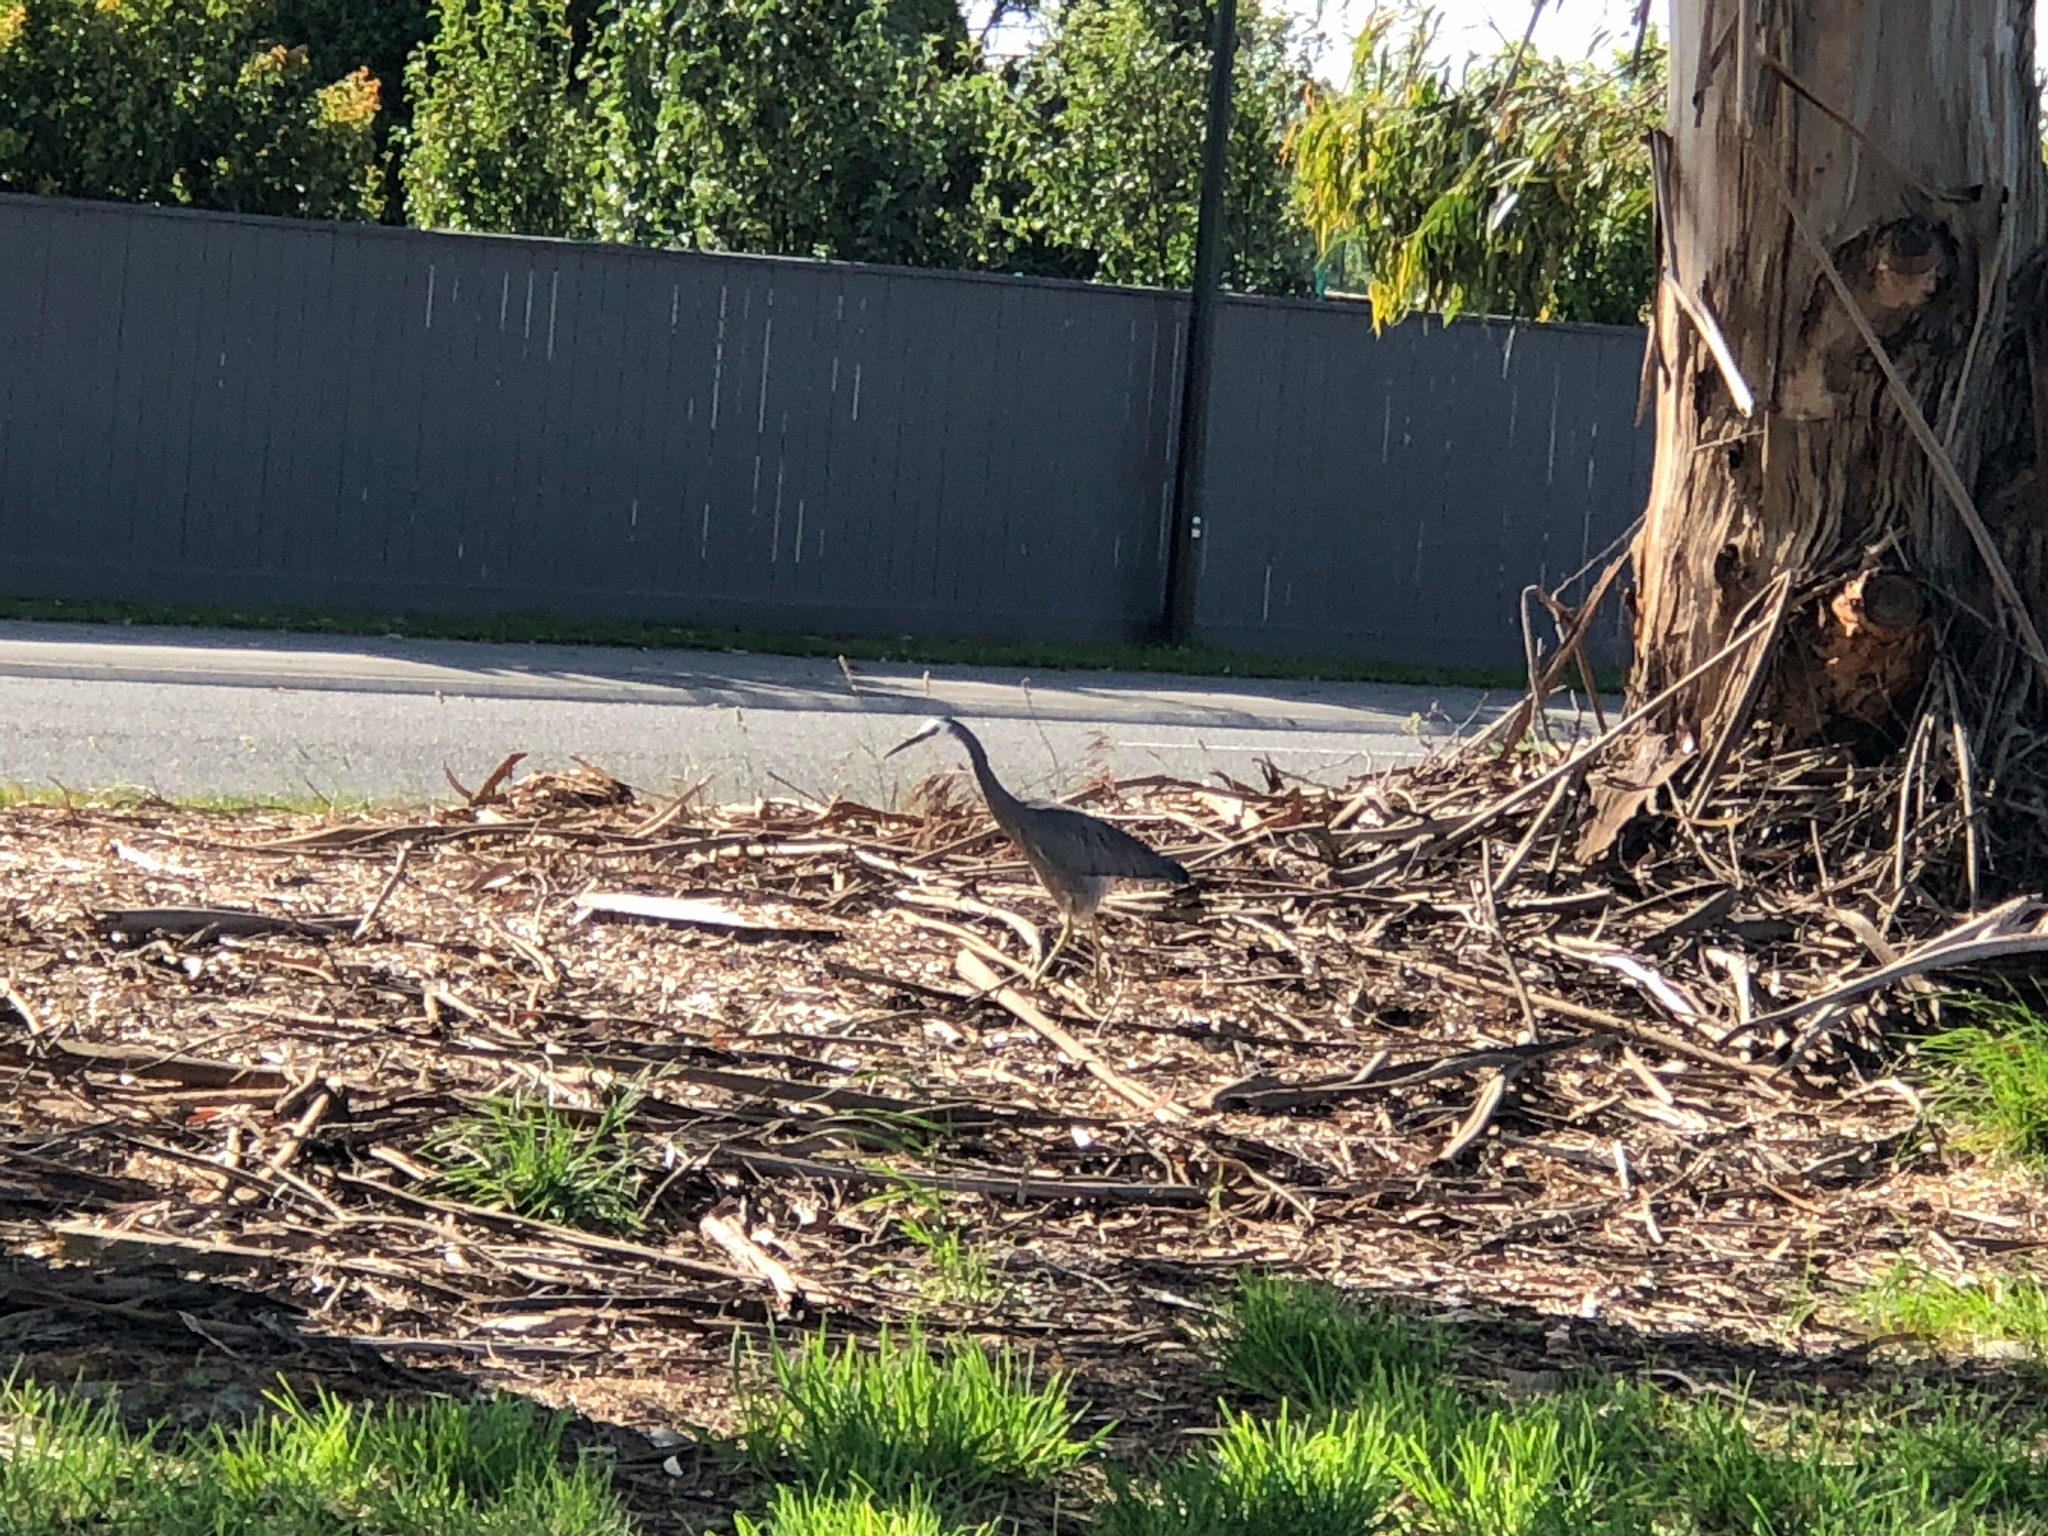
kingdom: Animalia
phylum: Chordata
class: Aves
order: Pelecaniformes
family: Ardeidae
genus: Egretta
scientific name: Egretta novaehollandiae
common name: White-faced heron
